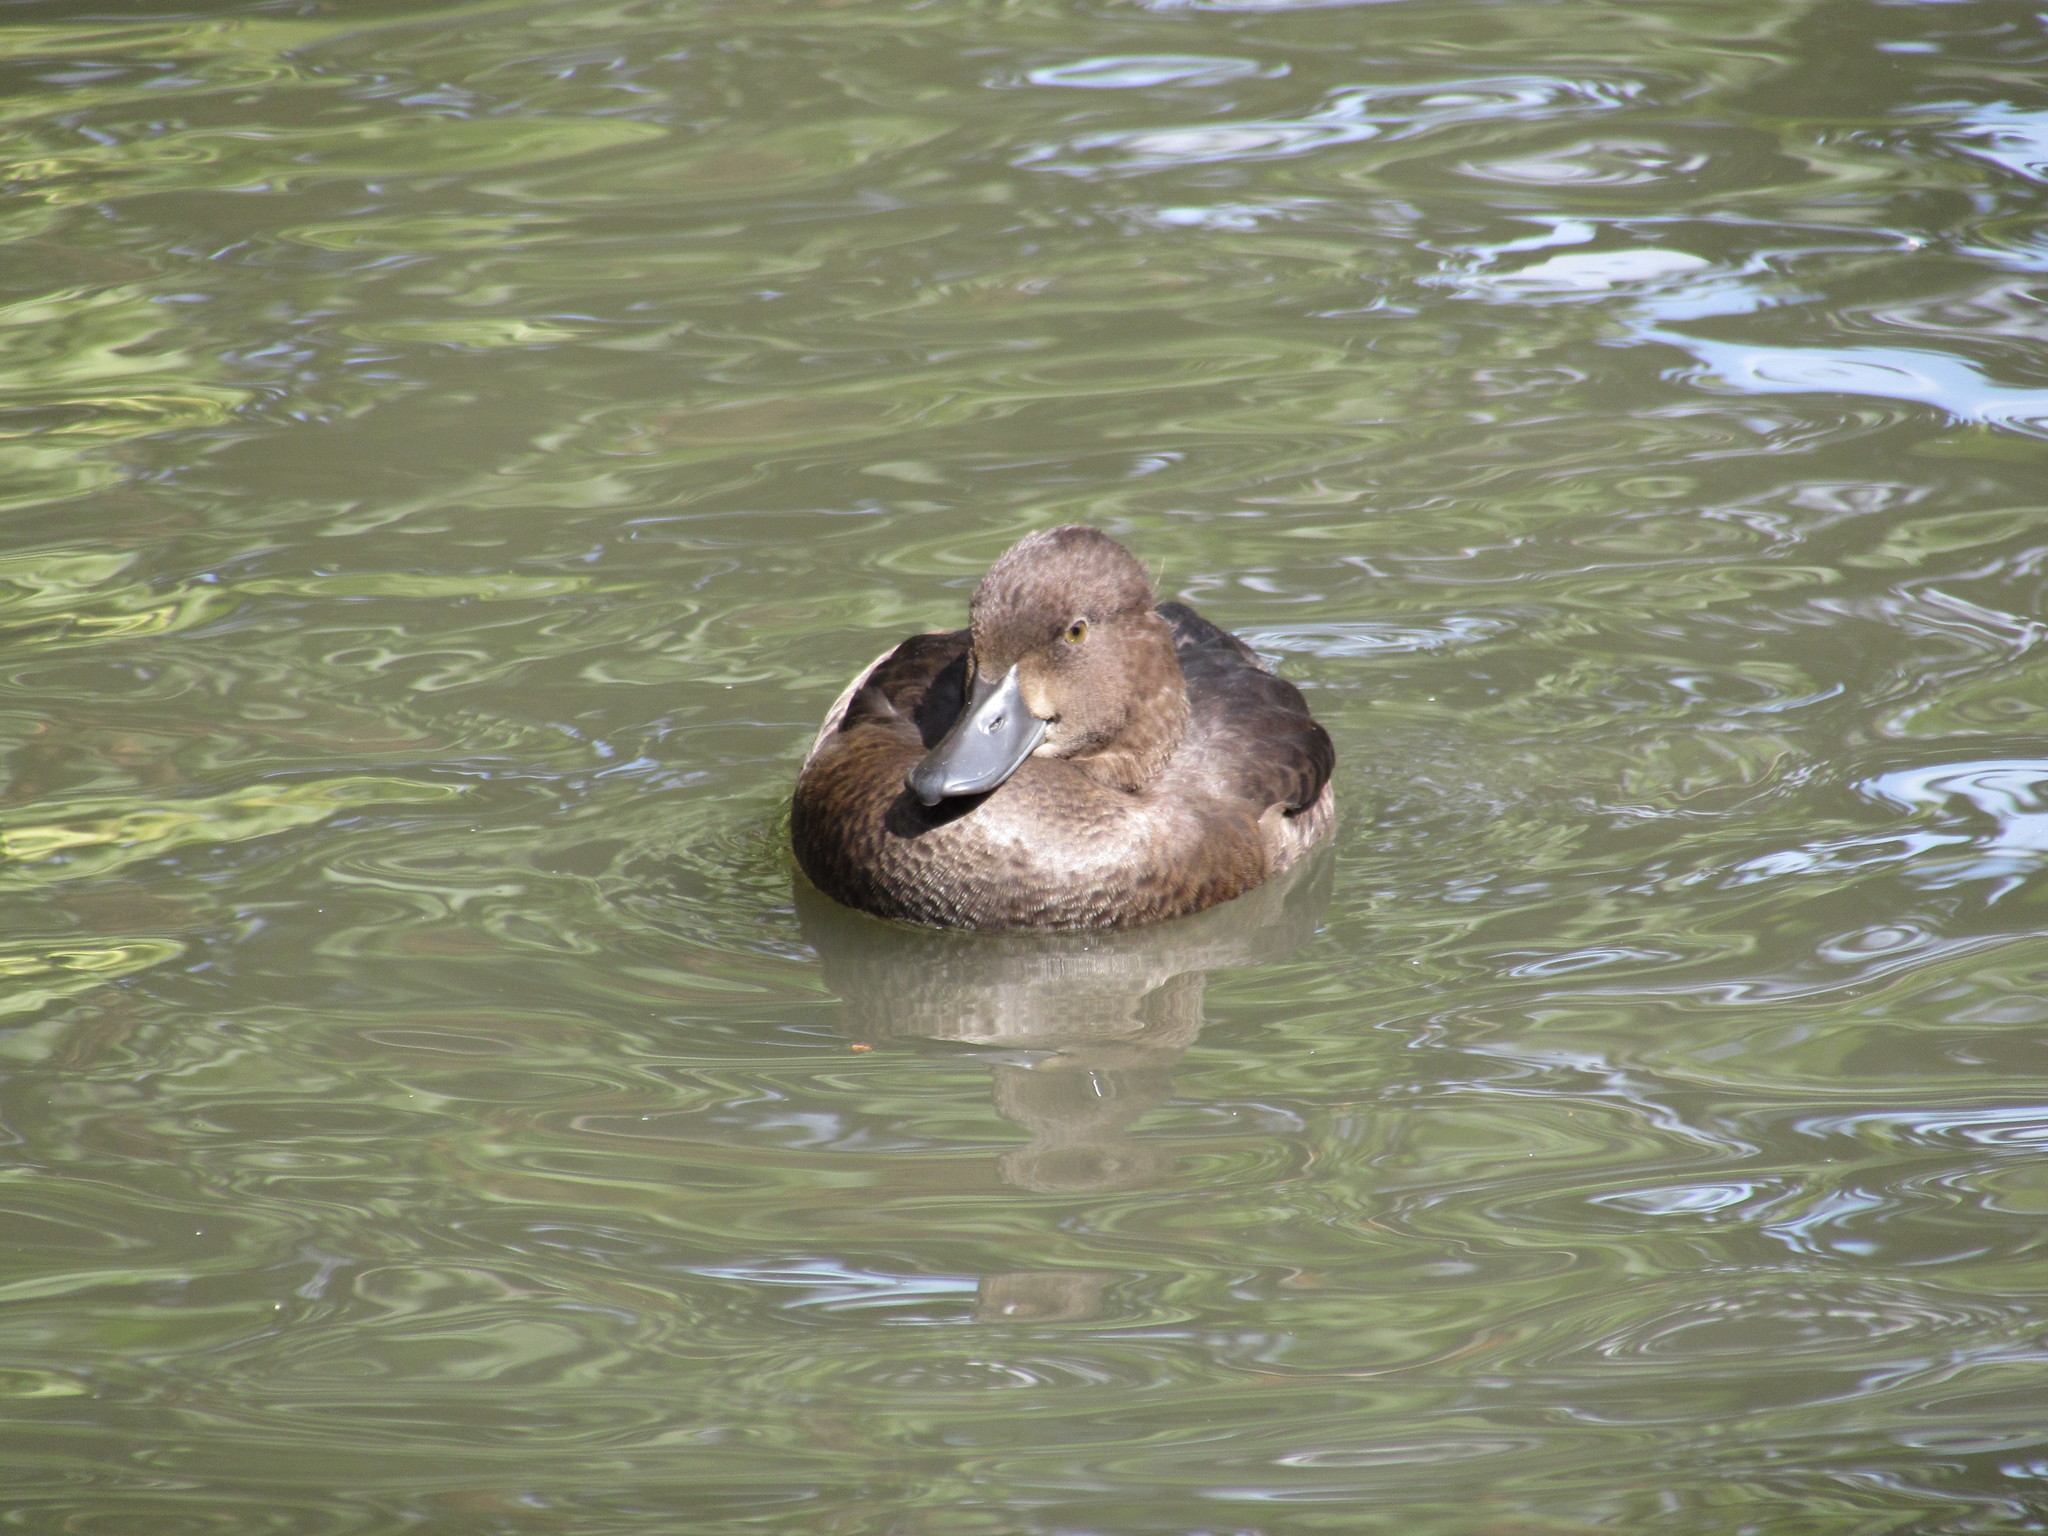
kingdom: Animalia
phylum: Chordata
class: Aves
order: Anseriformes
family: Anatidae
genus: Aythya
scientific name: Aythya fuligula
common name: Tufted duck
